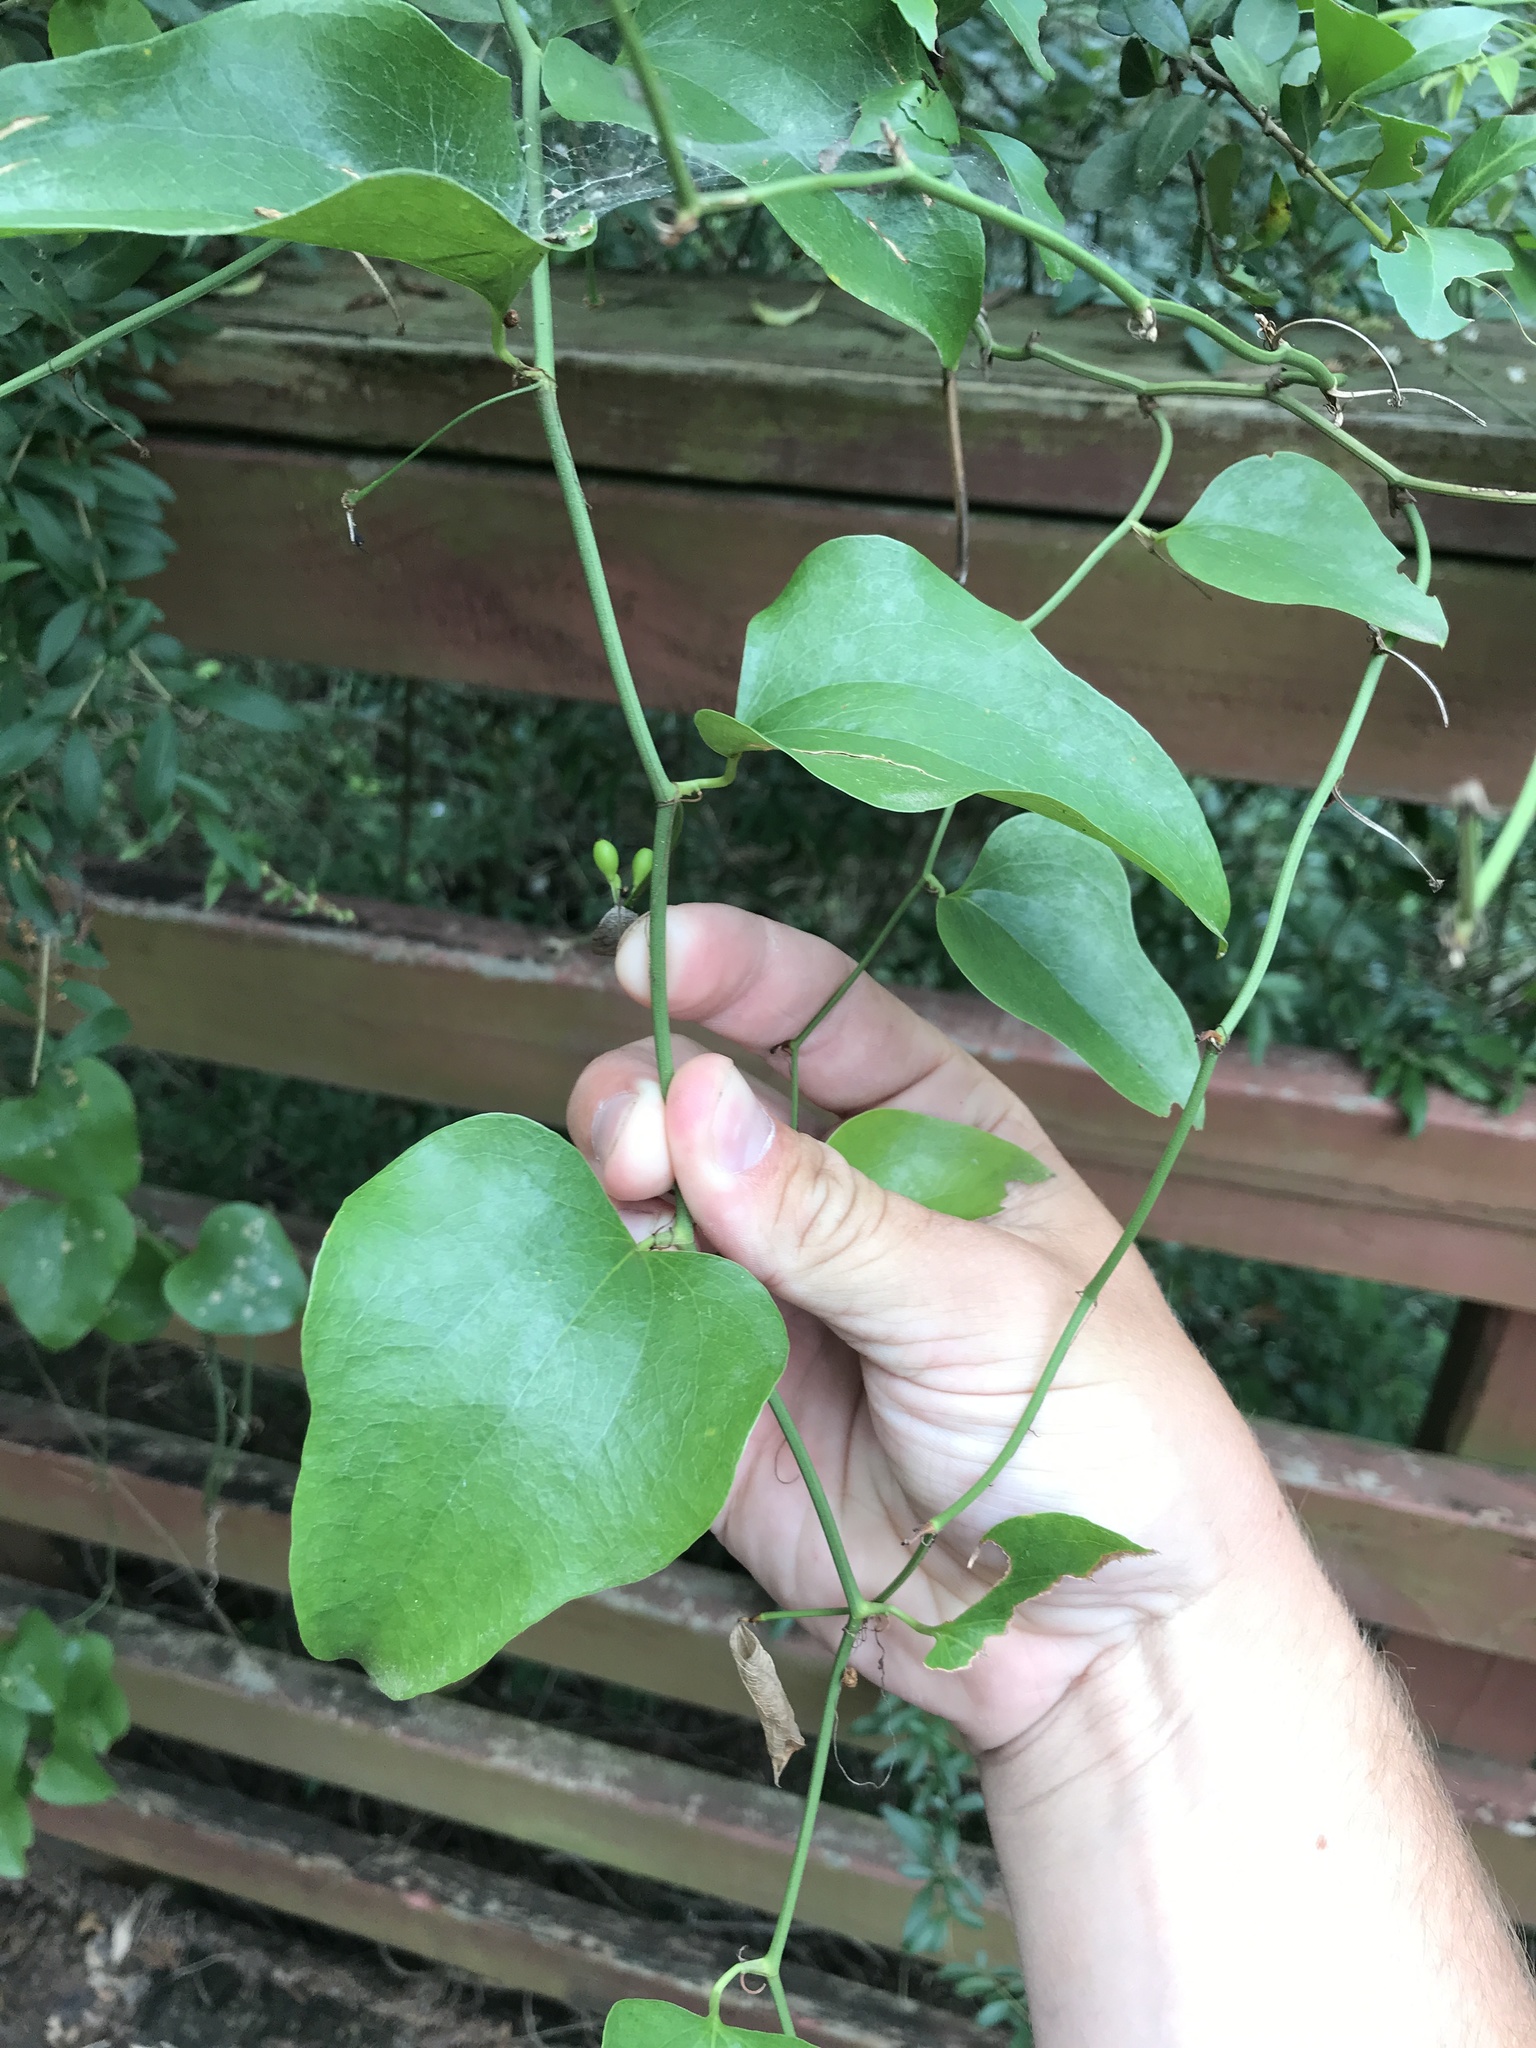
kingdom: Plantae
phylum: Tracheophyta
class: Liliopsida
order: Liliales
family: Smilacaceae
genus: Smilax
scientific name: Smilax bona-nox
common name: Catbrier
